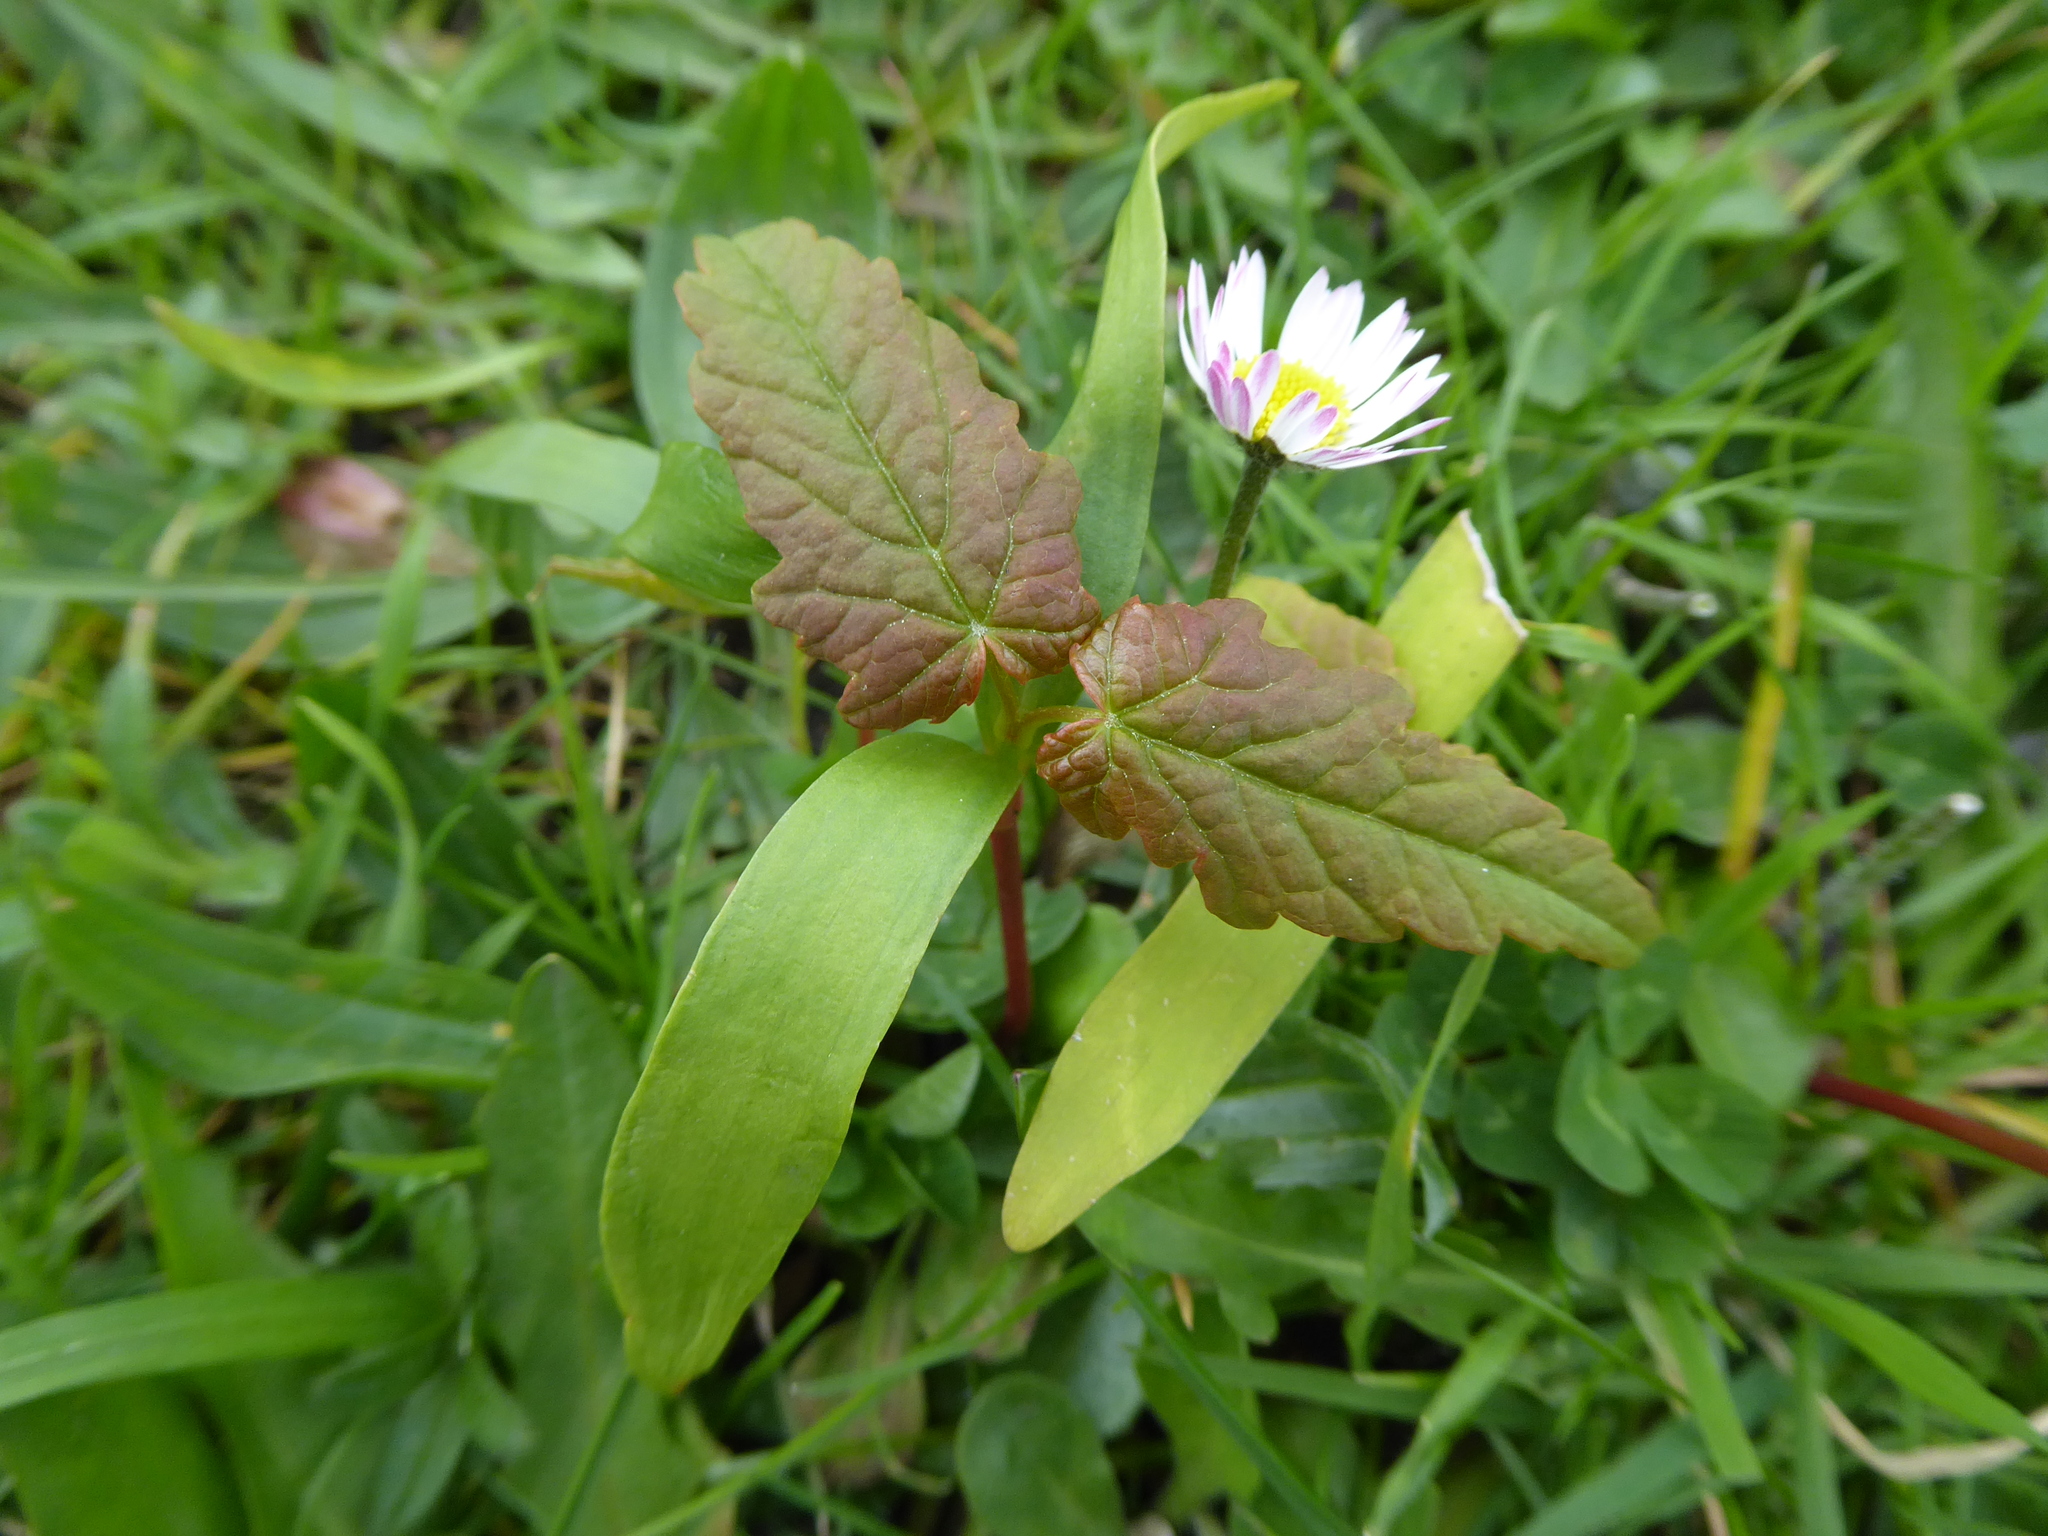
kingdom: Plantae
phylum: Tracheophyta
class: Magnoliopsida
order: Sapindales
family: Sapindaceae
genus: Acer
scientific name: Acer pseudoplatanus
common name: Sycamore
